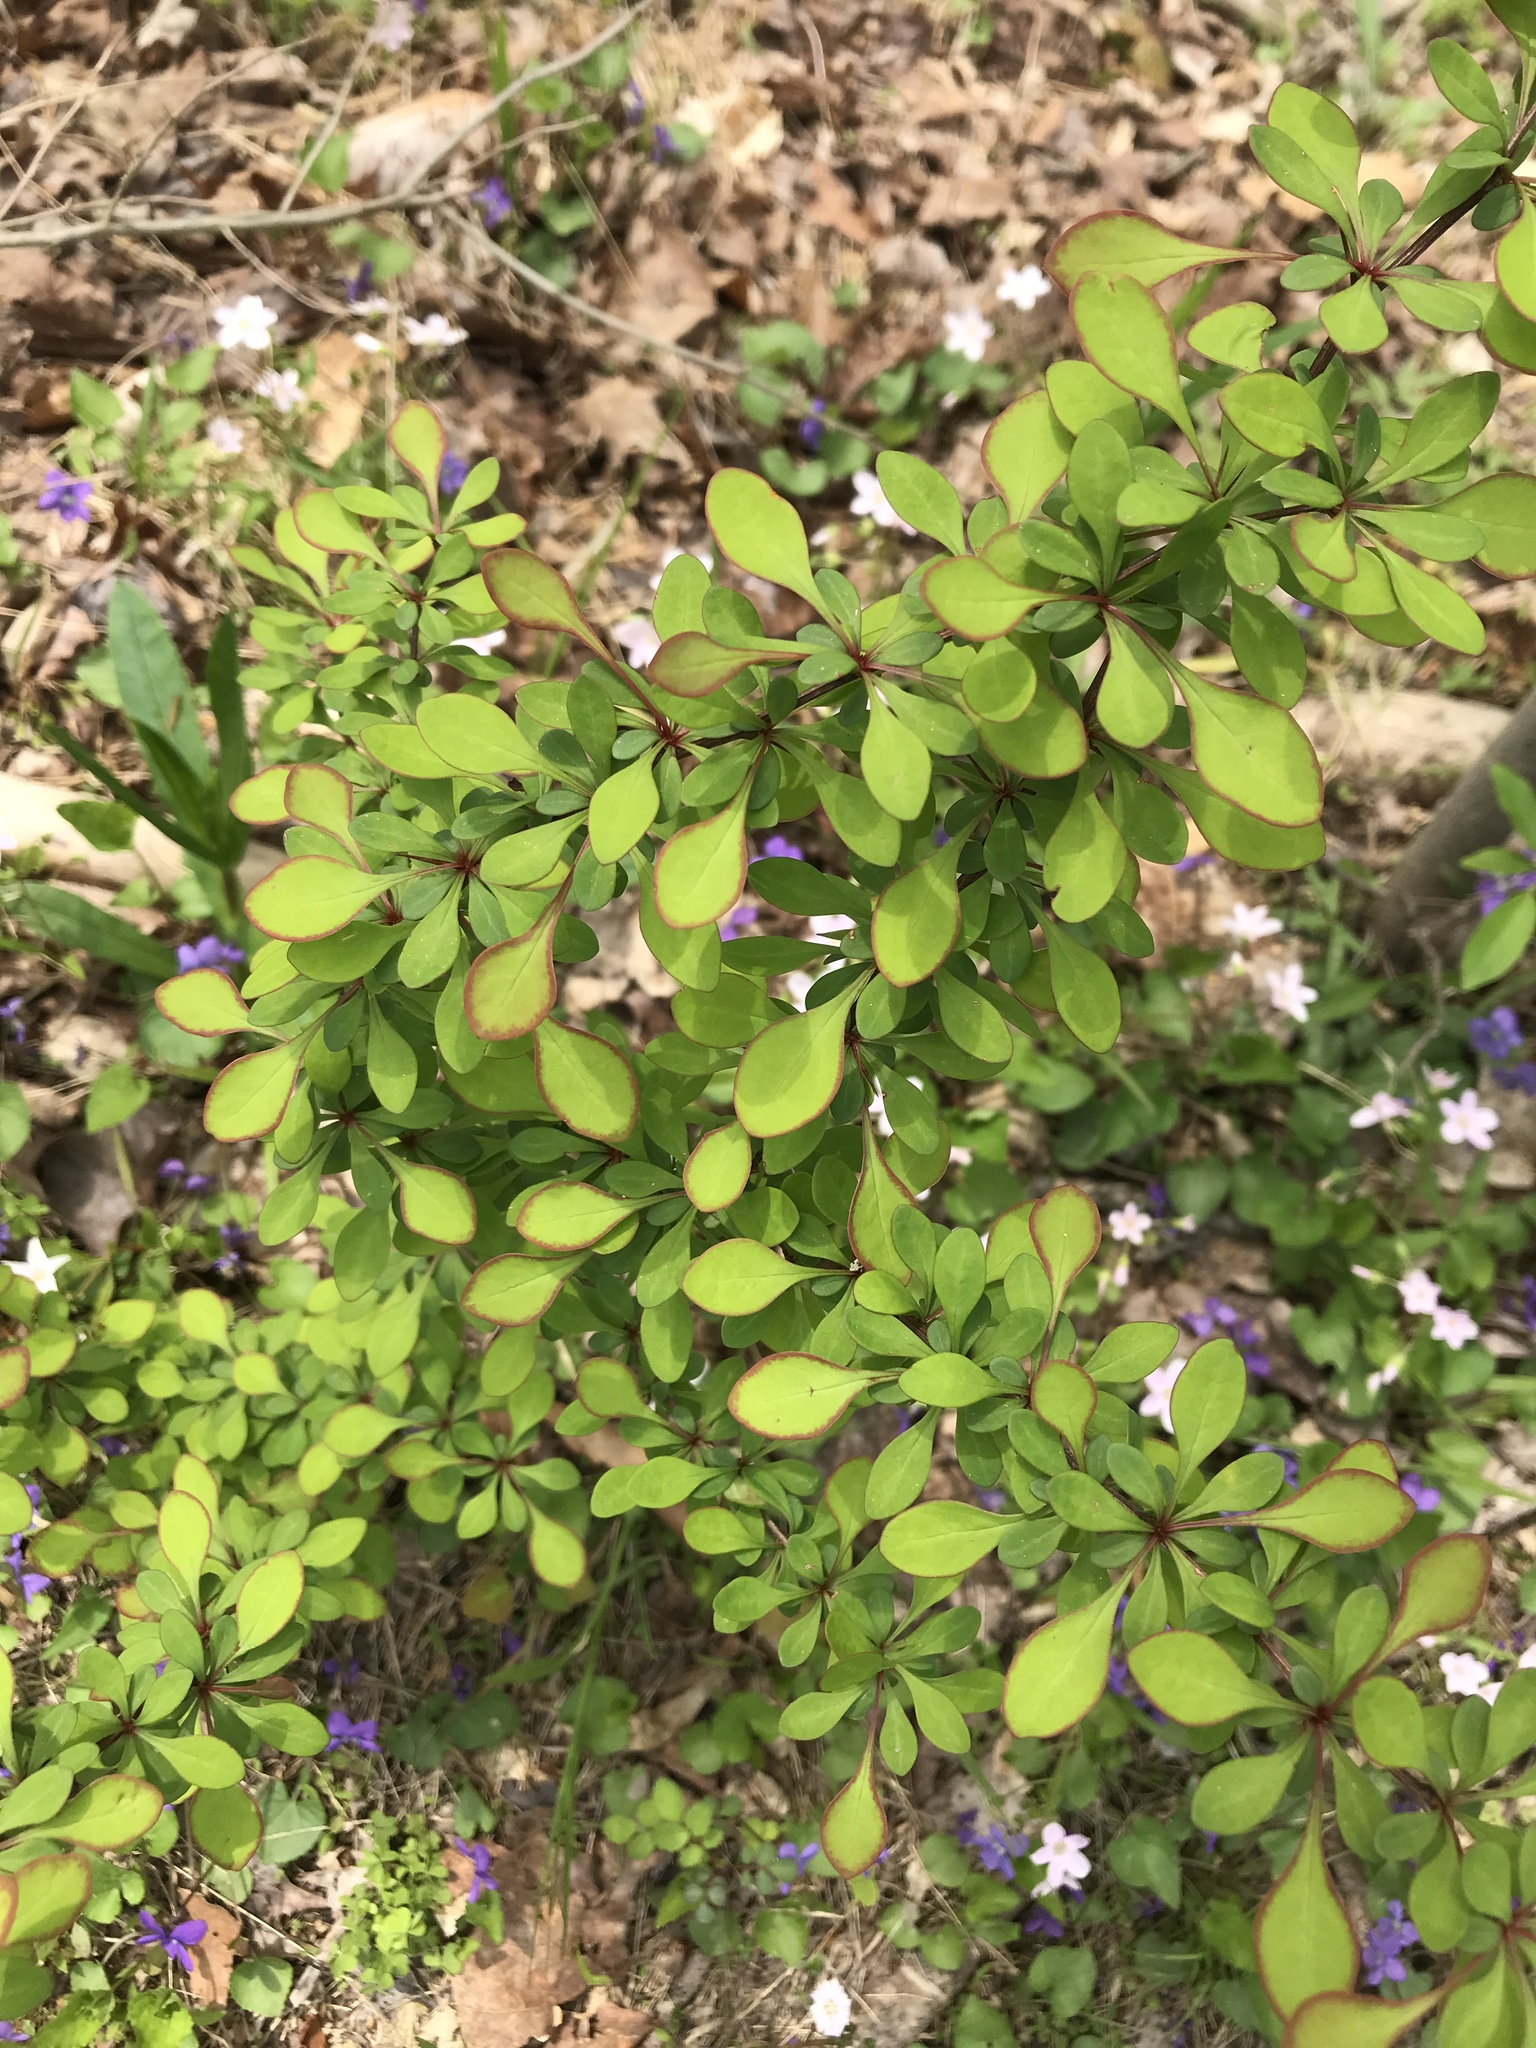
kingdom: Plantae
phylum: Tracheophyta
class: Magnoliopsida
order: Ranunculales
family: Berberidaceae
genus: Berberis
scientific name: Berberis thunbergii
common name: Japanese barberry
